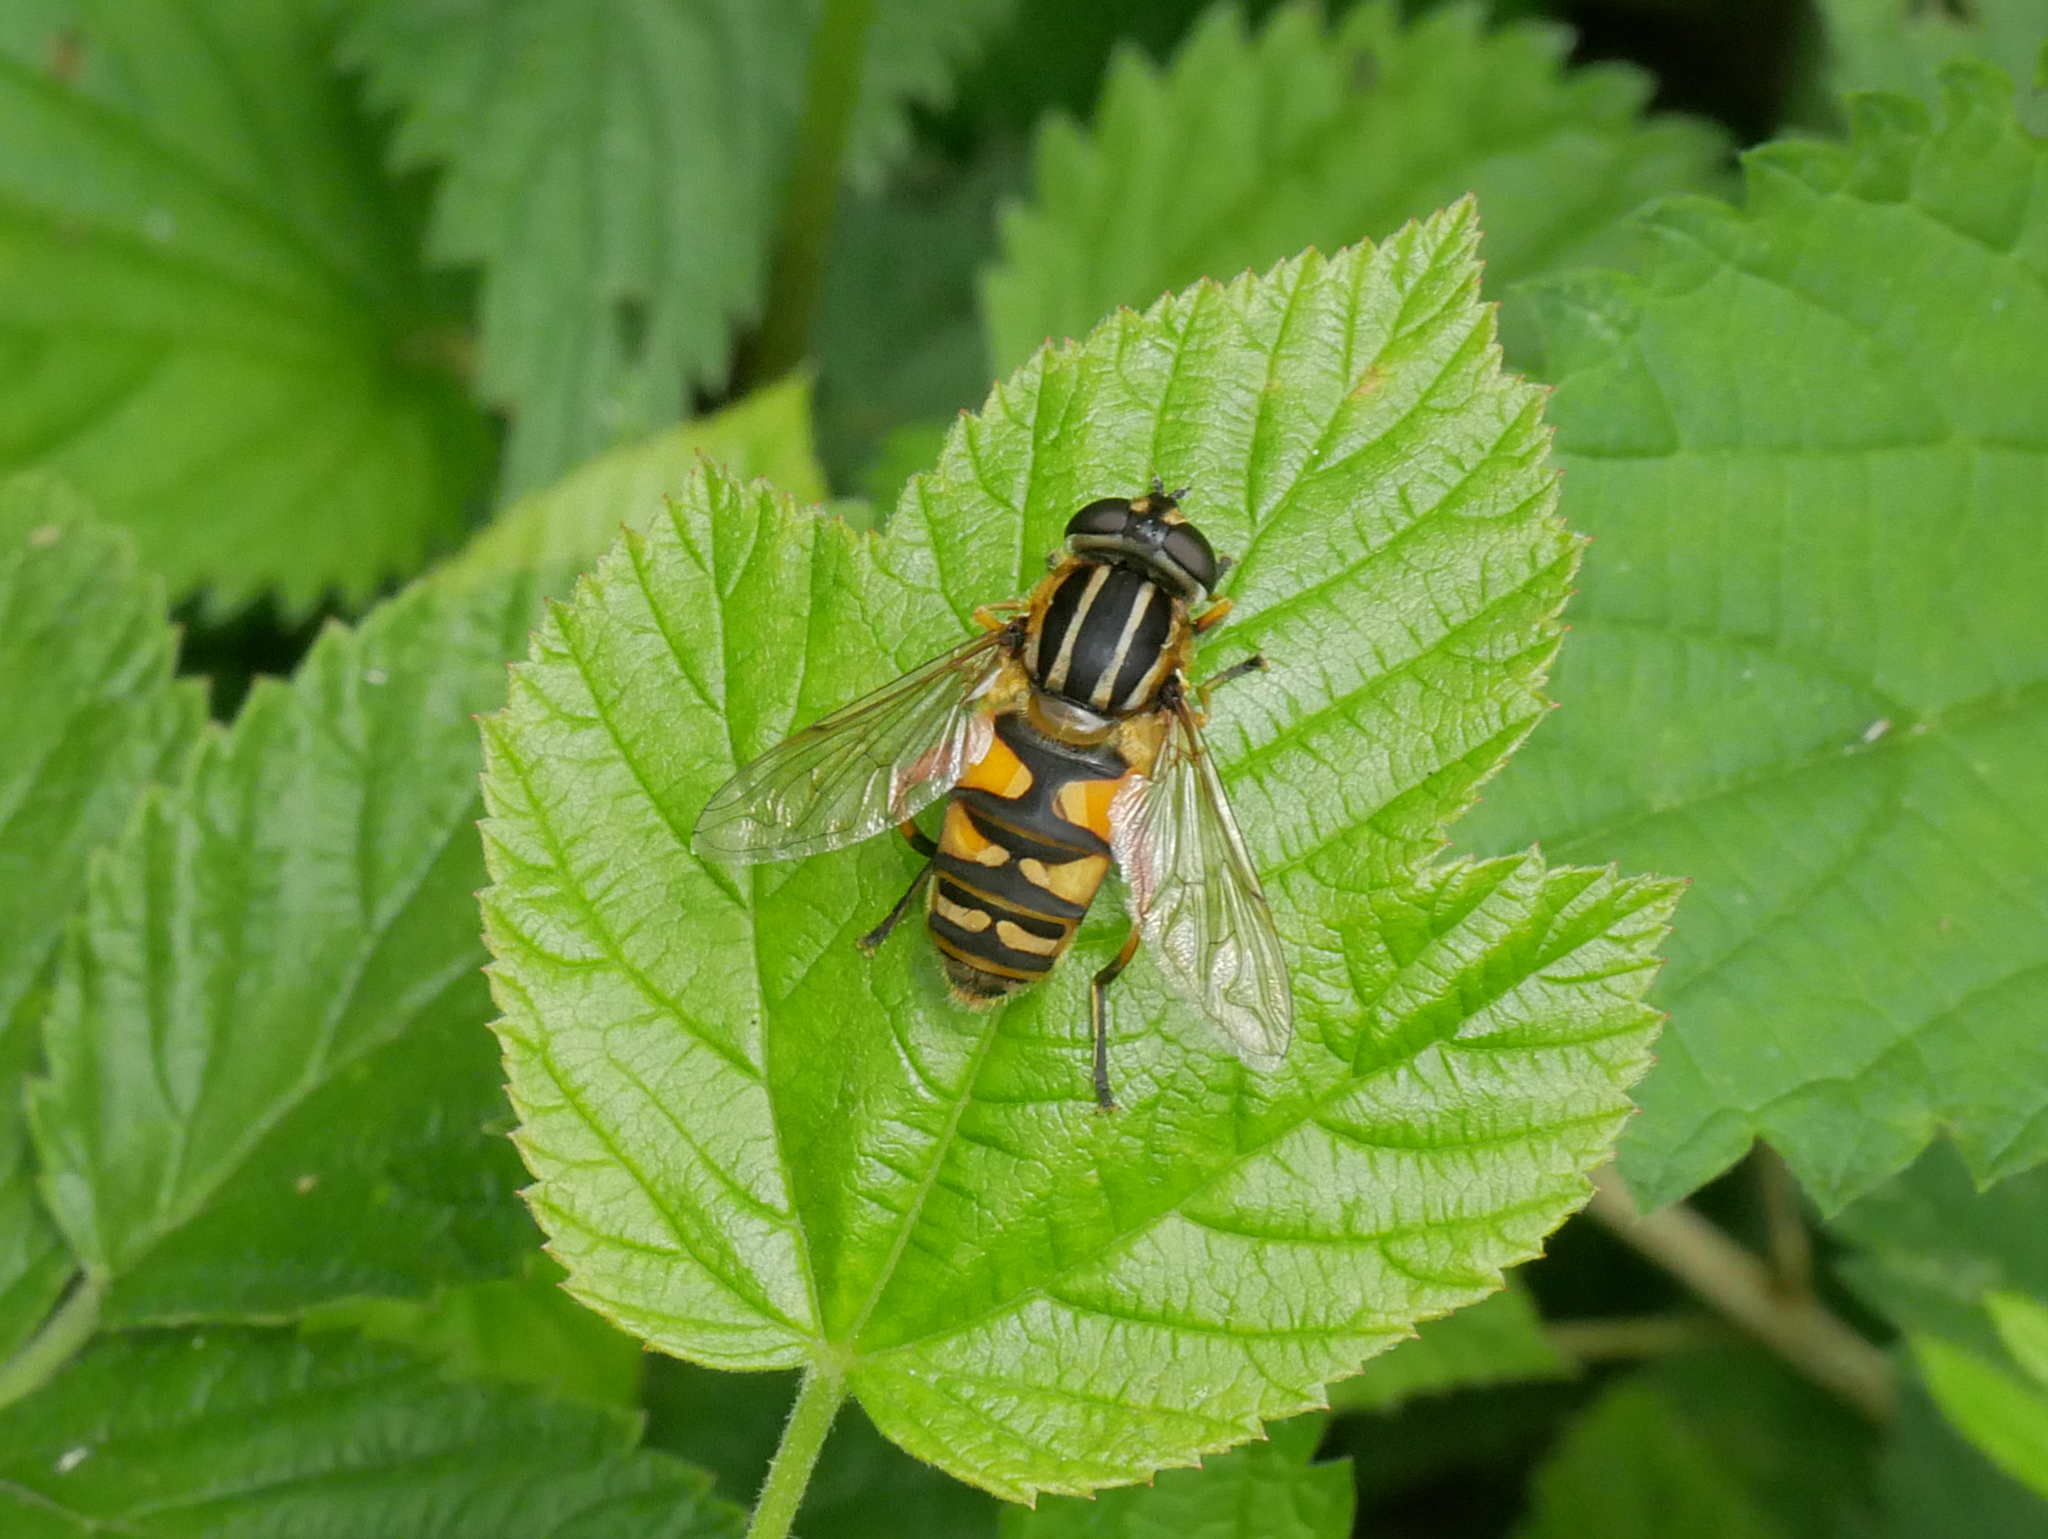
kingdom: Animalia
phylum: Arthropoda
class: Insecta
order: Diptera
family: Syrphidae
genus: Helophilus
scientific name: Helophilus pendulus
